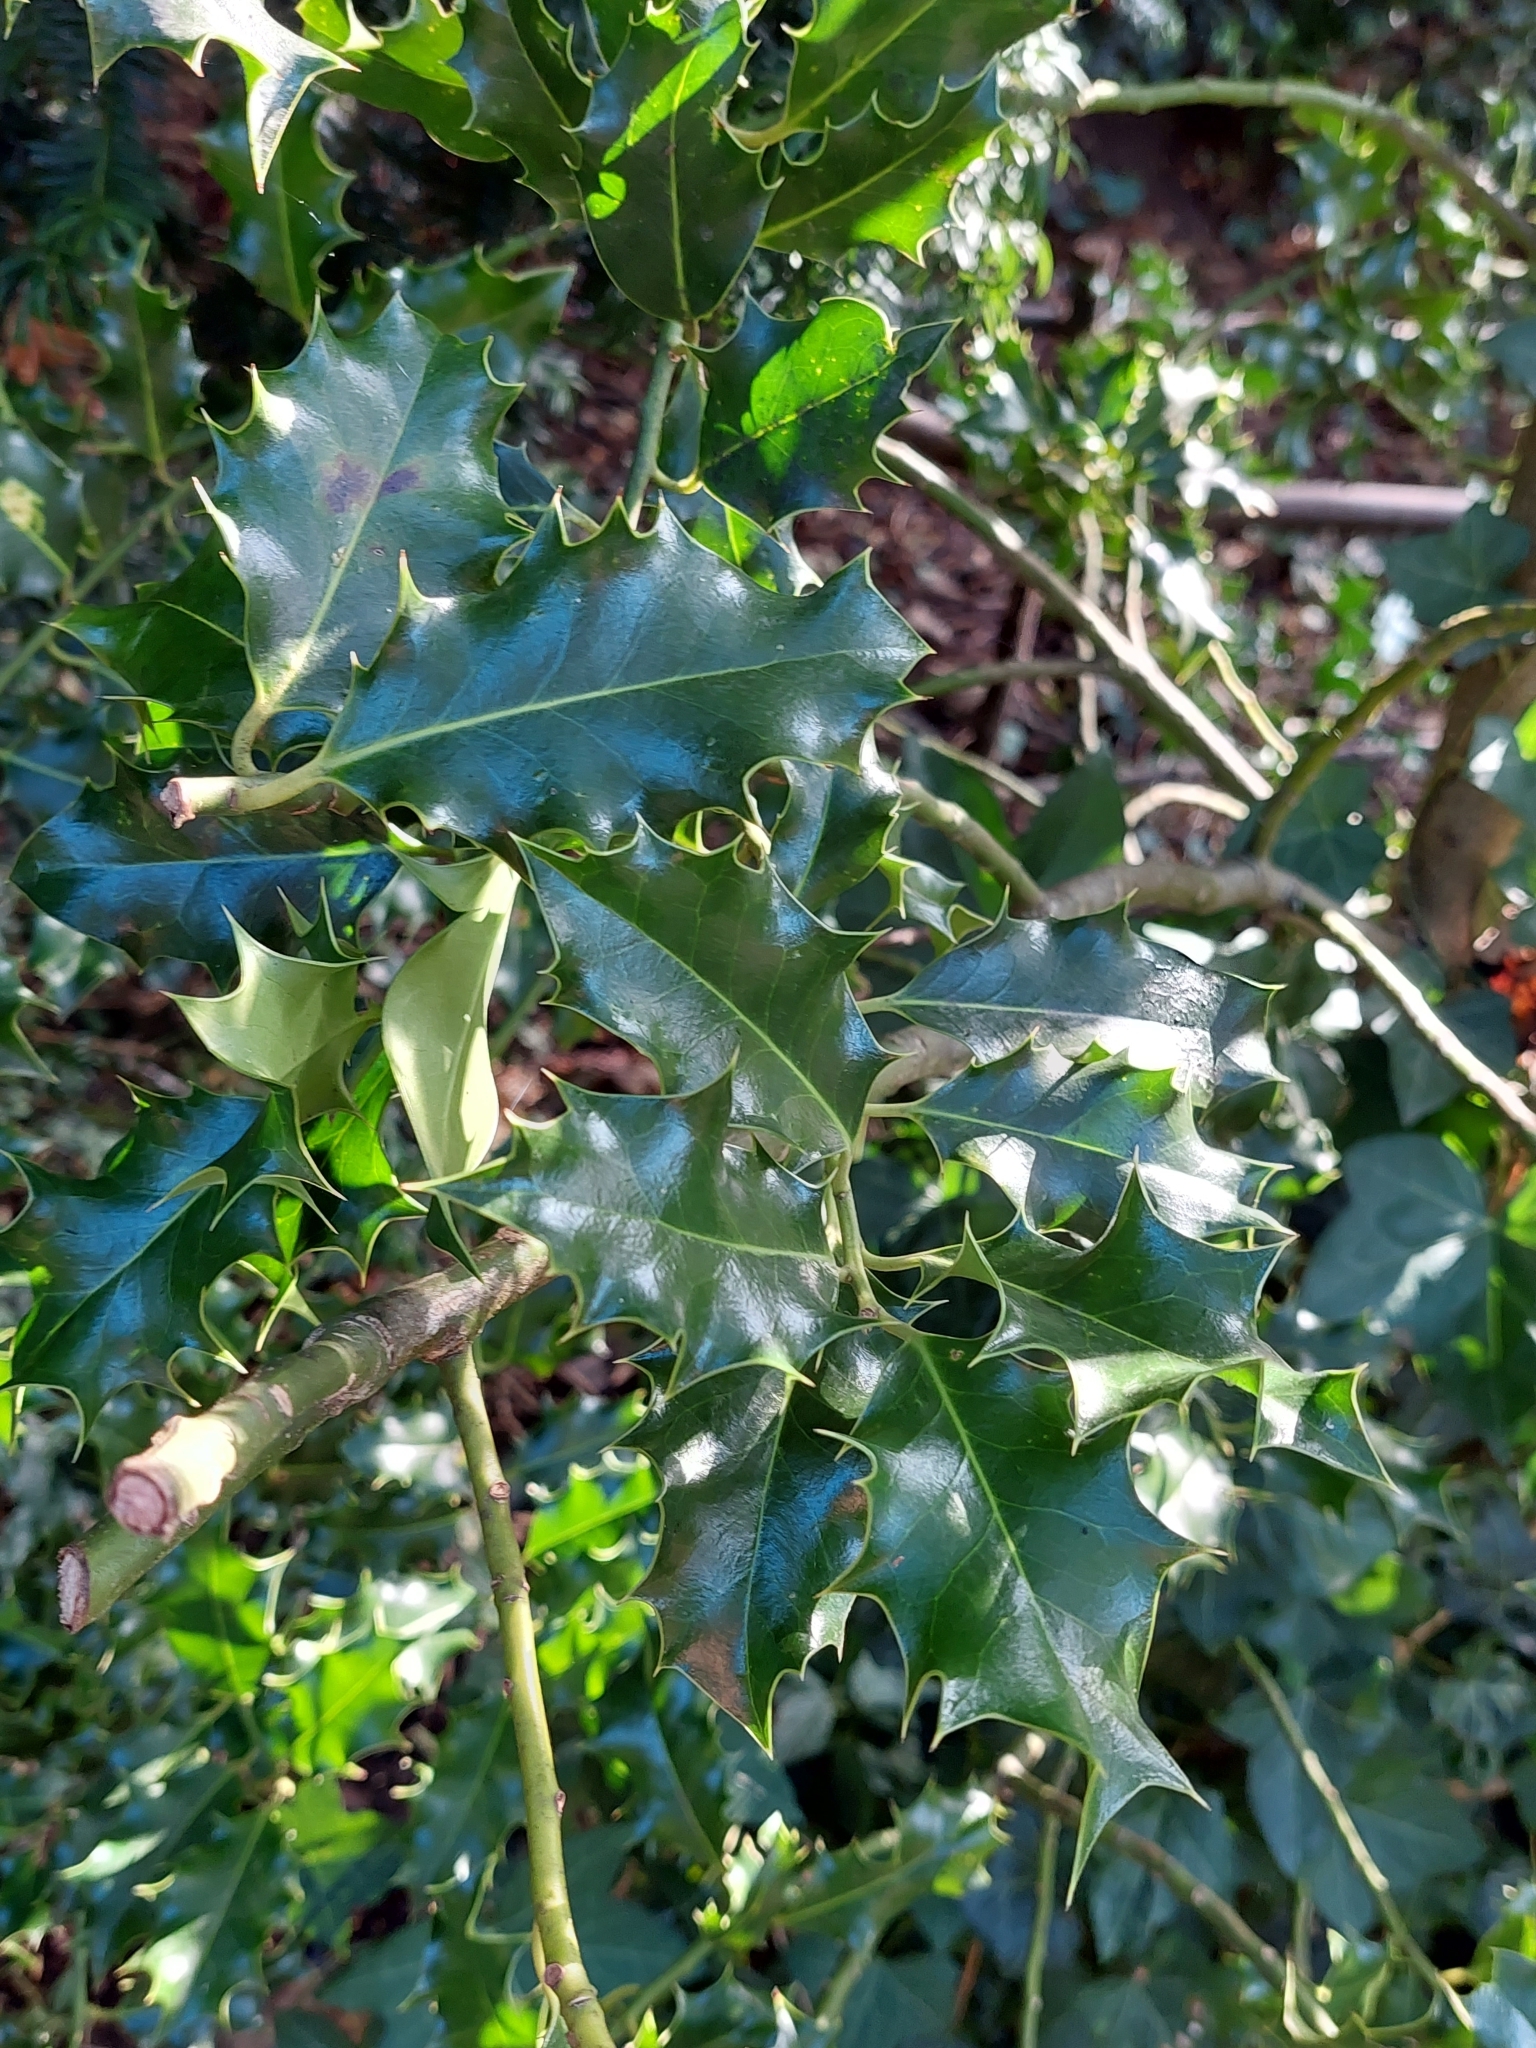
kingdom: Plantae
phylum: Tracheophyta
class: Magnoliopsida
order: Aquifoliales
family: Aquifoliaceae
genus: Ilex
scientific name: Ilex aquifolium
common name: English holly
